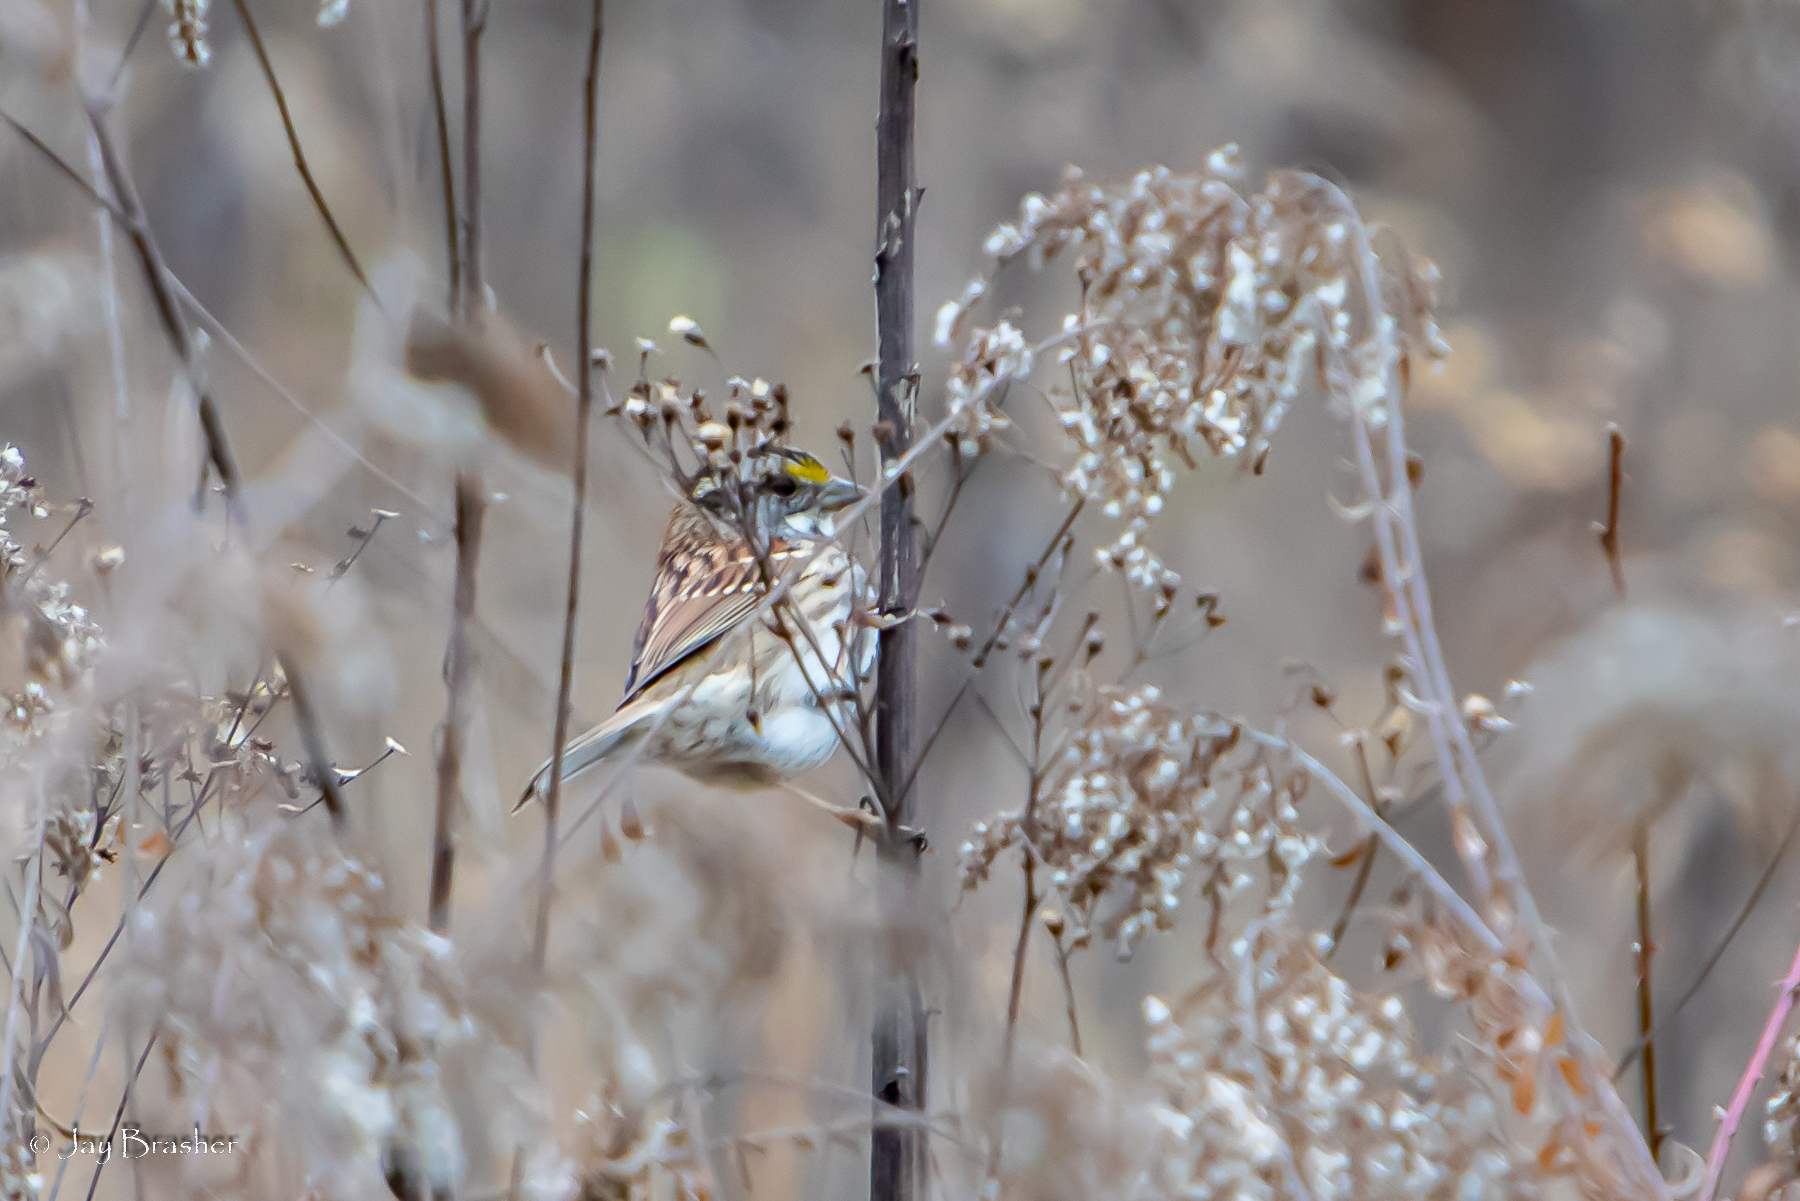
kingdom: Animalia
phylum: Chordata
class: Aves
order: Passeriformes
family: Passerellidae
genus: Zonotrichia
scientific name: Zonotrichia albicollis
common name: White-throated sparrow
